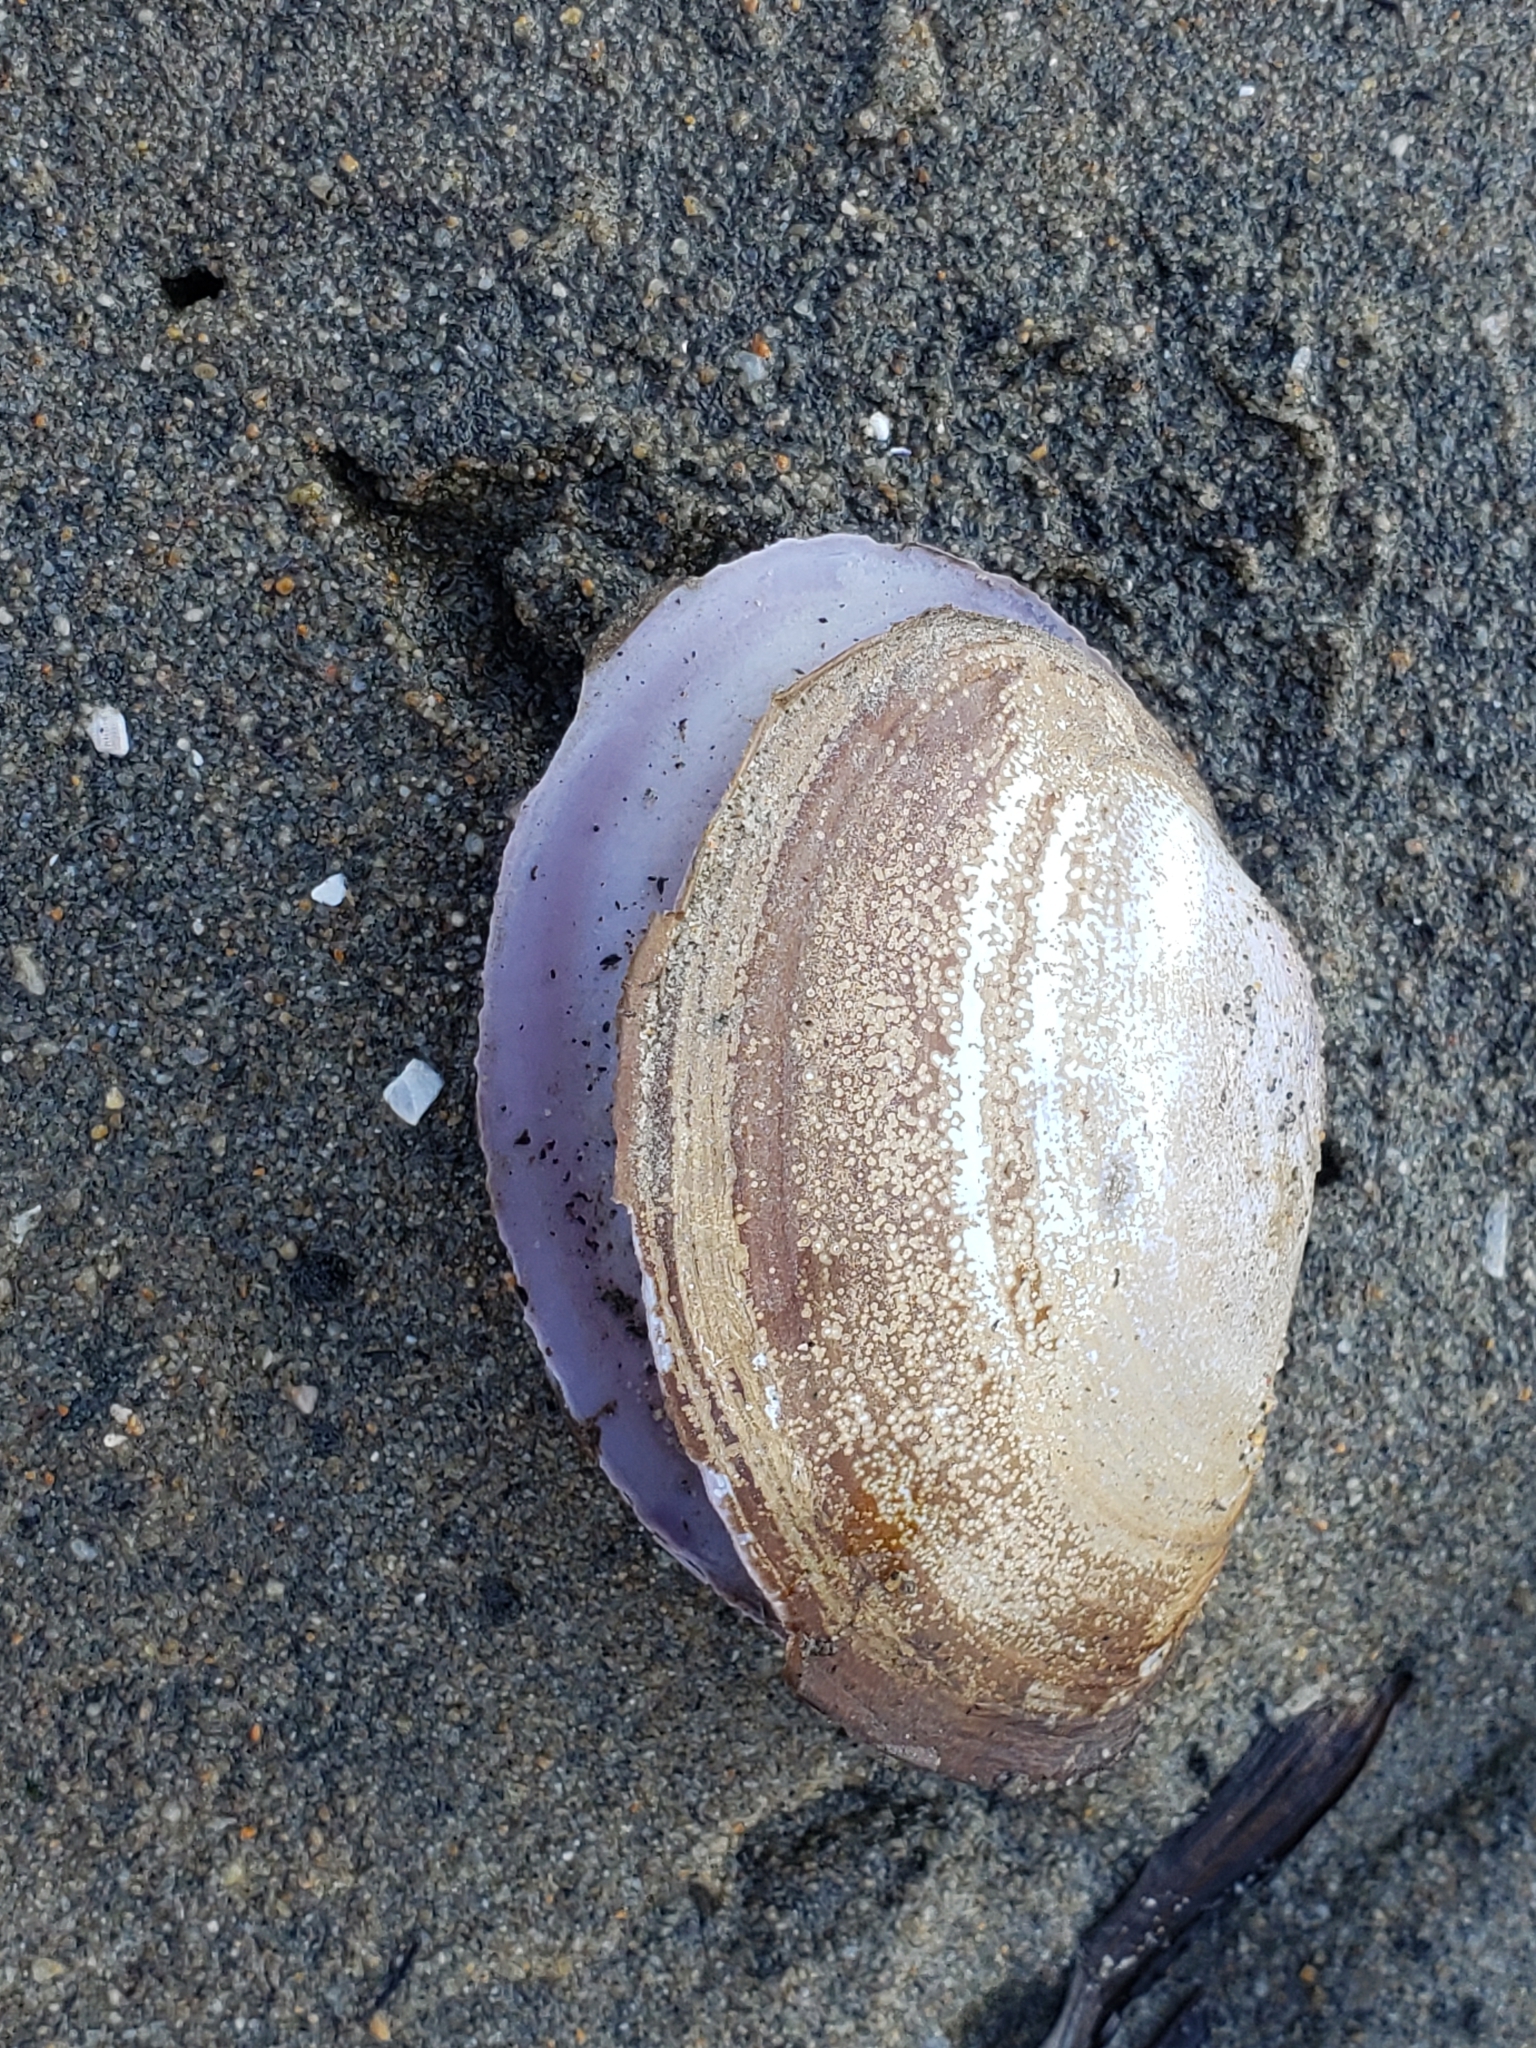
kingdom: Animalia
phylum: Mollusca
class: Bivalvia
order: Cardiida
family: Psammobiidae
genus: Nuttallia
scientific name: Nuttallia nuttallii
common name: California mahogany-clam
